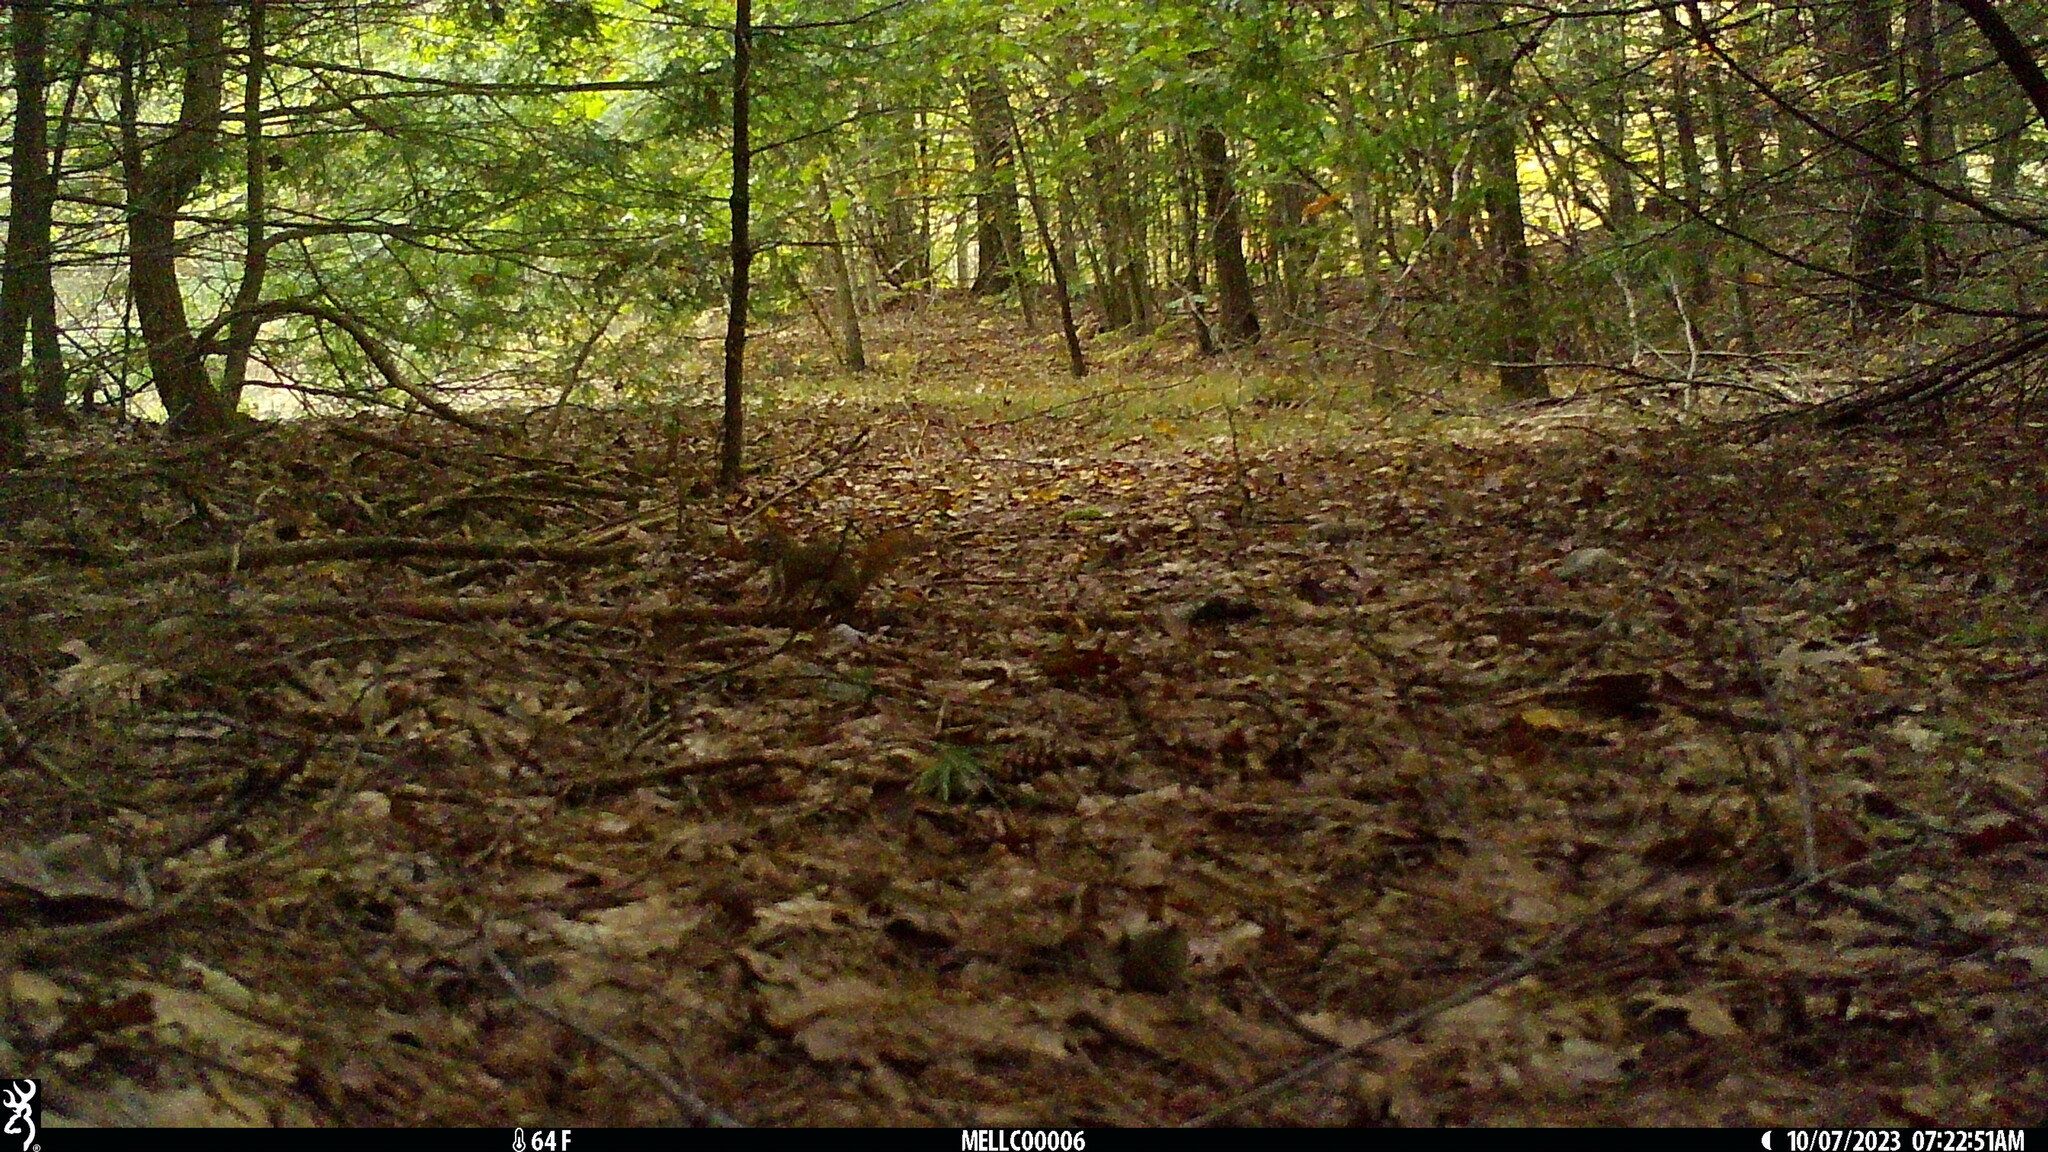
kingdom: Animalia
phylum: Chordata
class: Mammalia
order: Rodentia
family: Sciuridae
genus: Tamiasciurus
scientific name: Tamiasciurus hudsonicus
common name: Red squirrel
